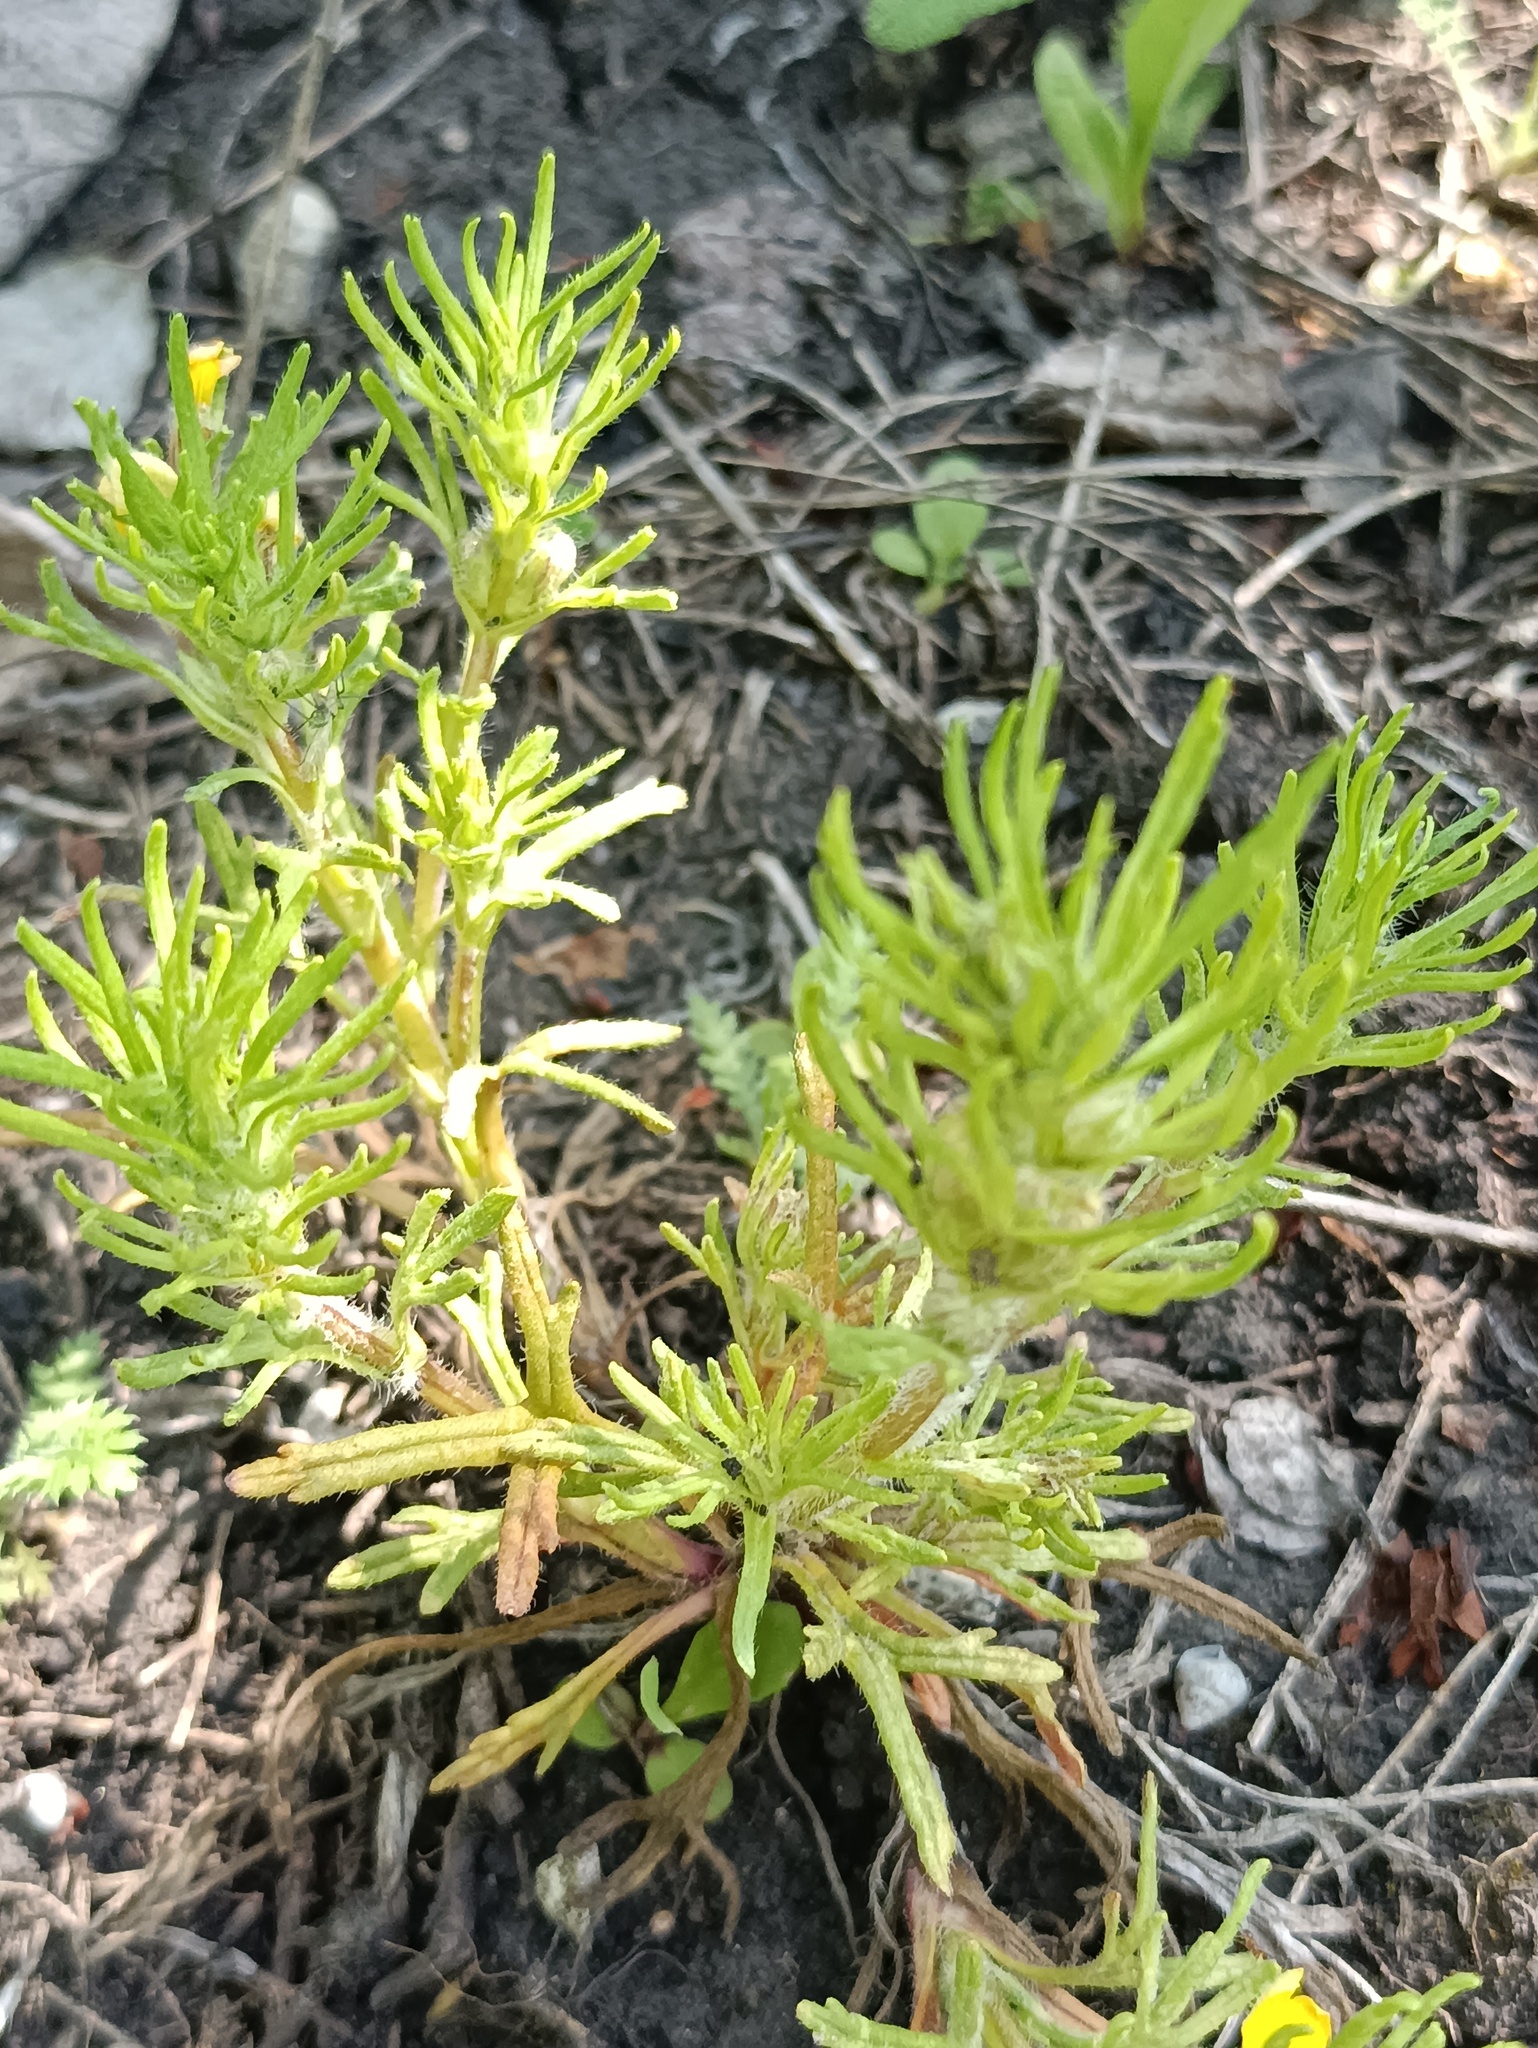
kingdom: Plantae
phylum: Tracheophyta
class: Magnoliopsida
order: Lamiales
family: Lamiaceae
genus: Ajuga
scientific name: Ajuga chamaepitys
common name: Ground-pine
